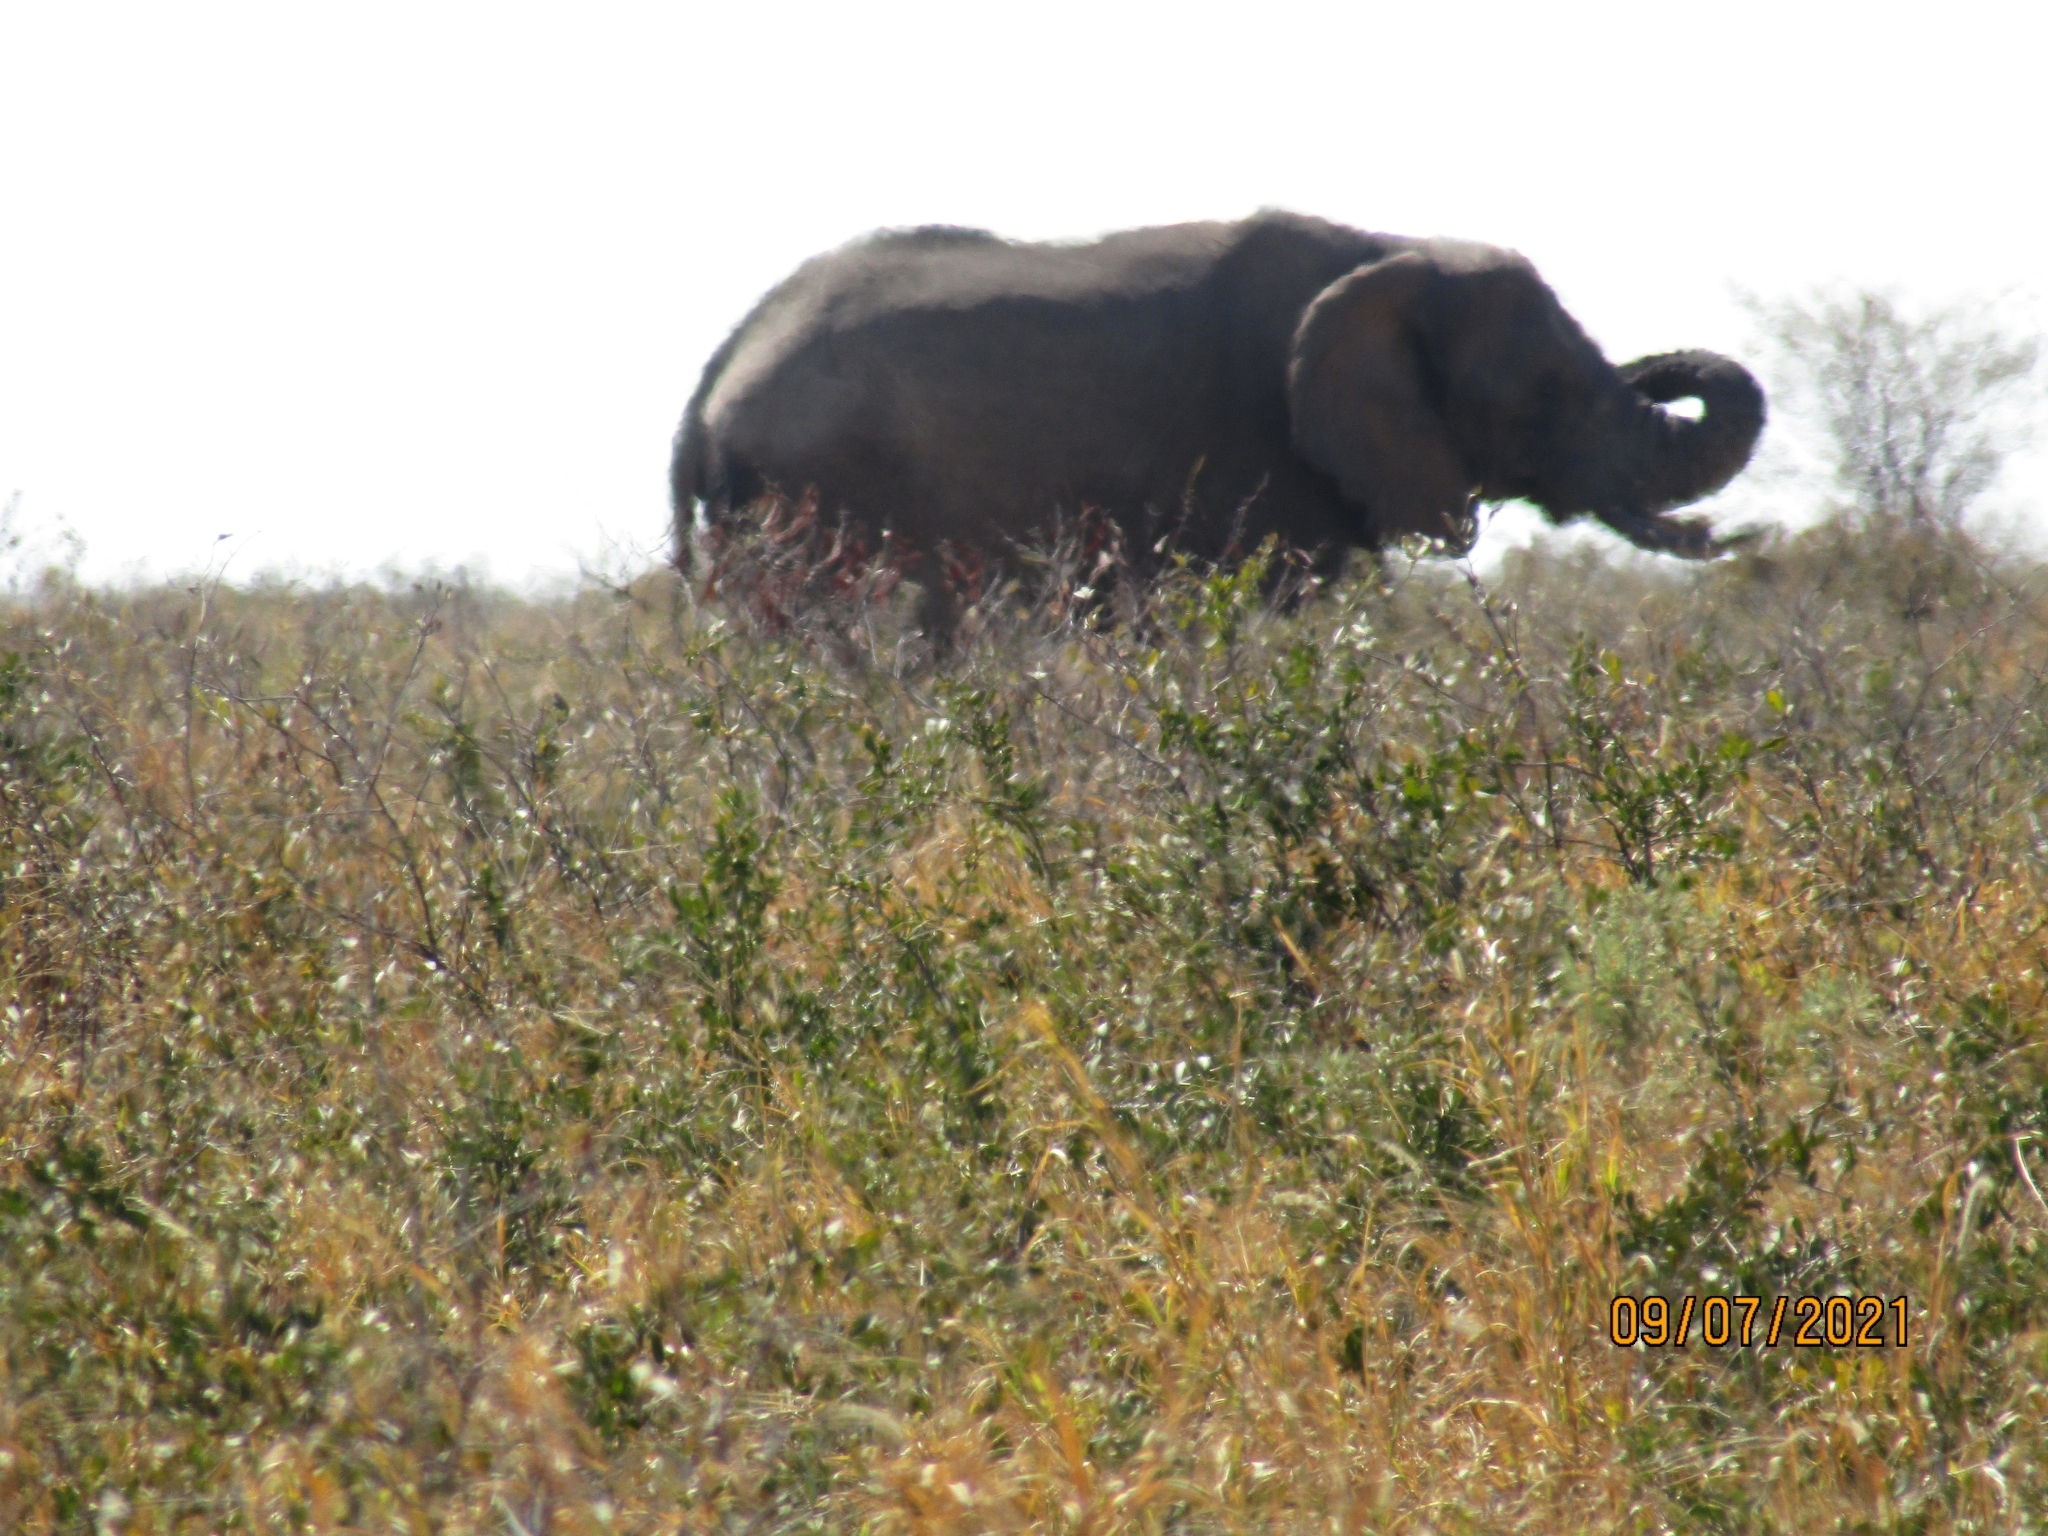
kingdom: Animalia
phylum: Chordata
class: Mammalia
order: Proboscidea
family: Elephantidae
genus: Loxodonta
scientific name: Loxodonta africana
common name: African elephant
